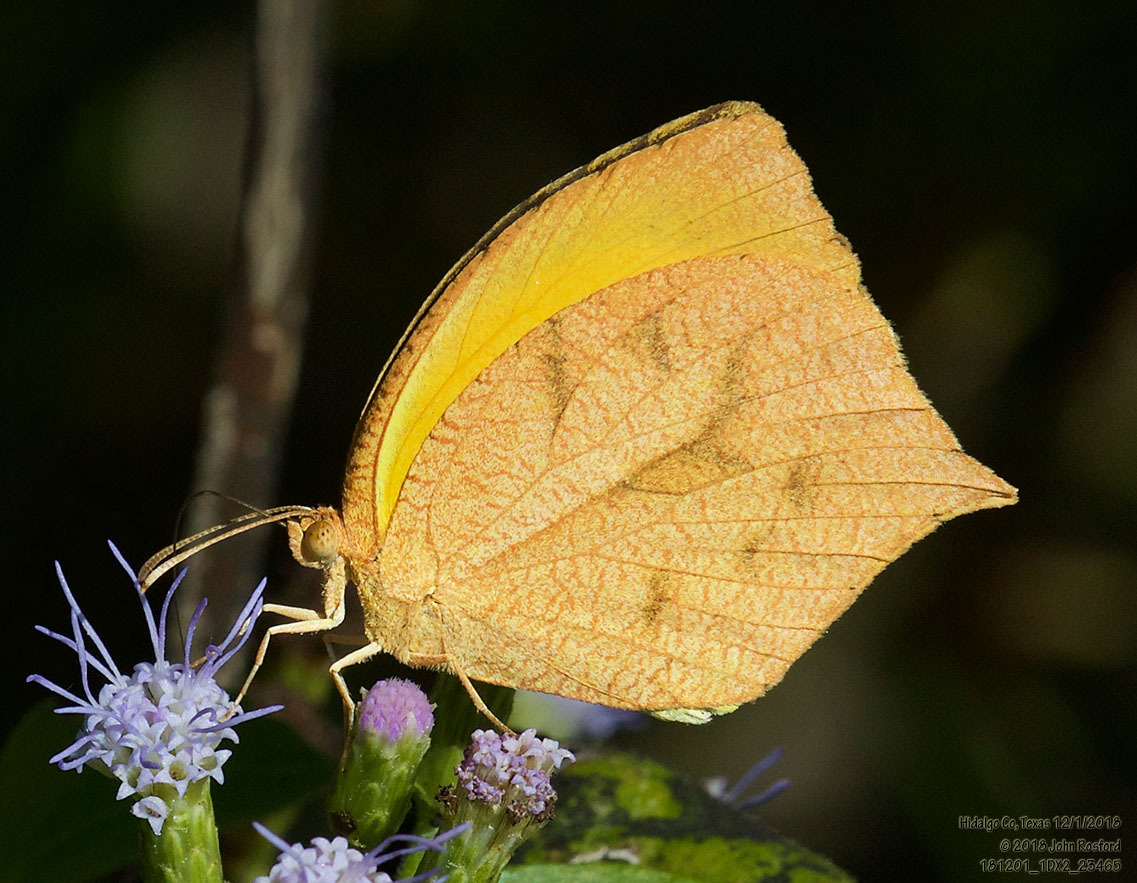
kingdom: Animalia
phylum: Arthropoda
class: Insecta
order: Lepidoptera
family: Pieridae
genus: Pyrisitia
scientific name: Pyrisitia proterpia
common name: Tailed orange
